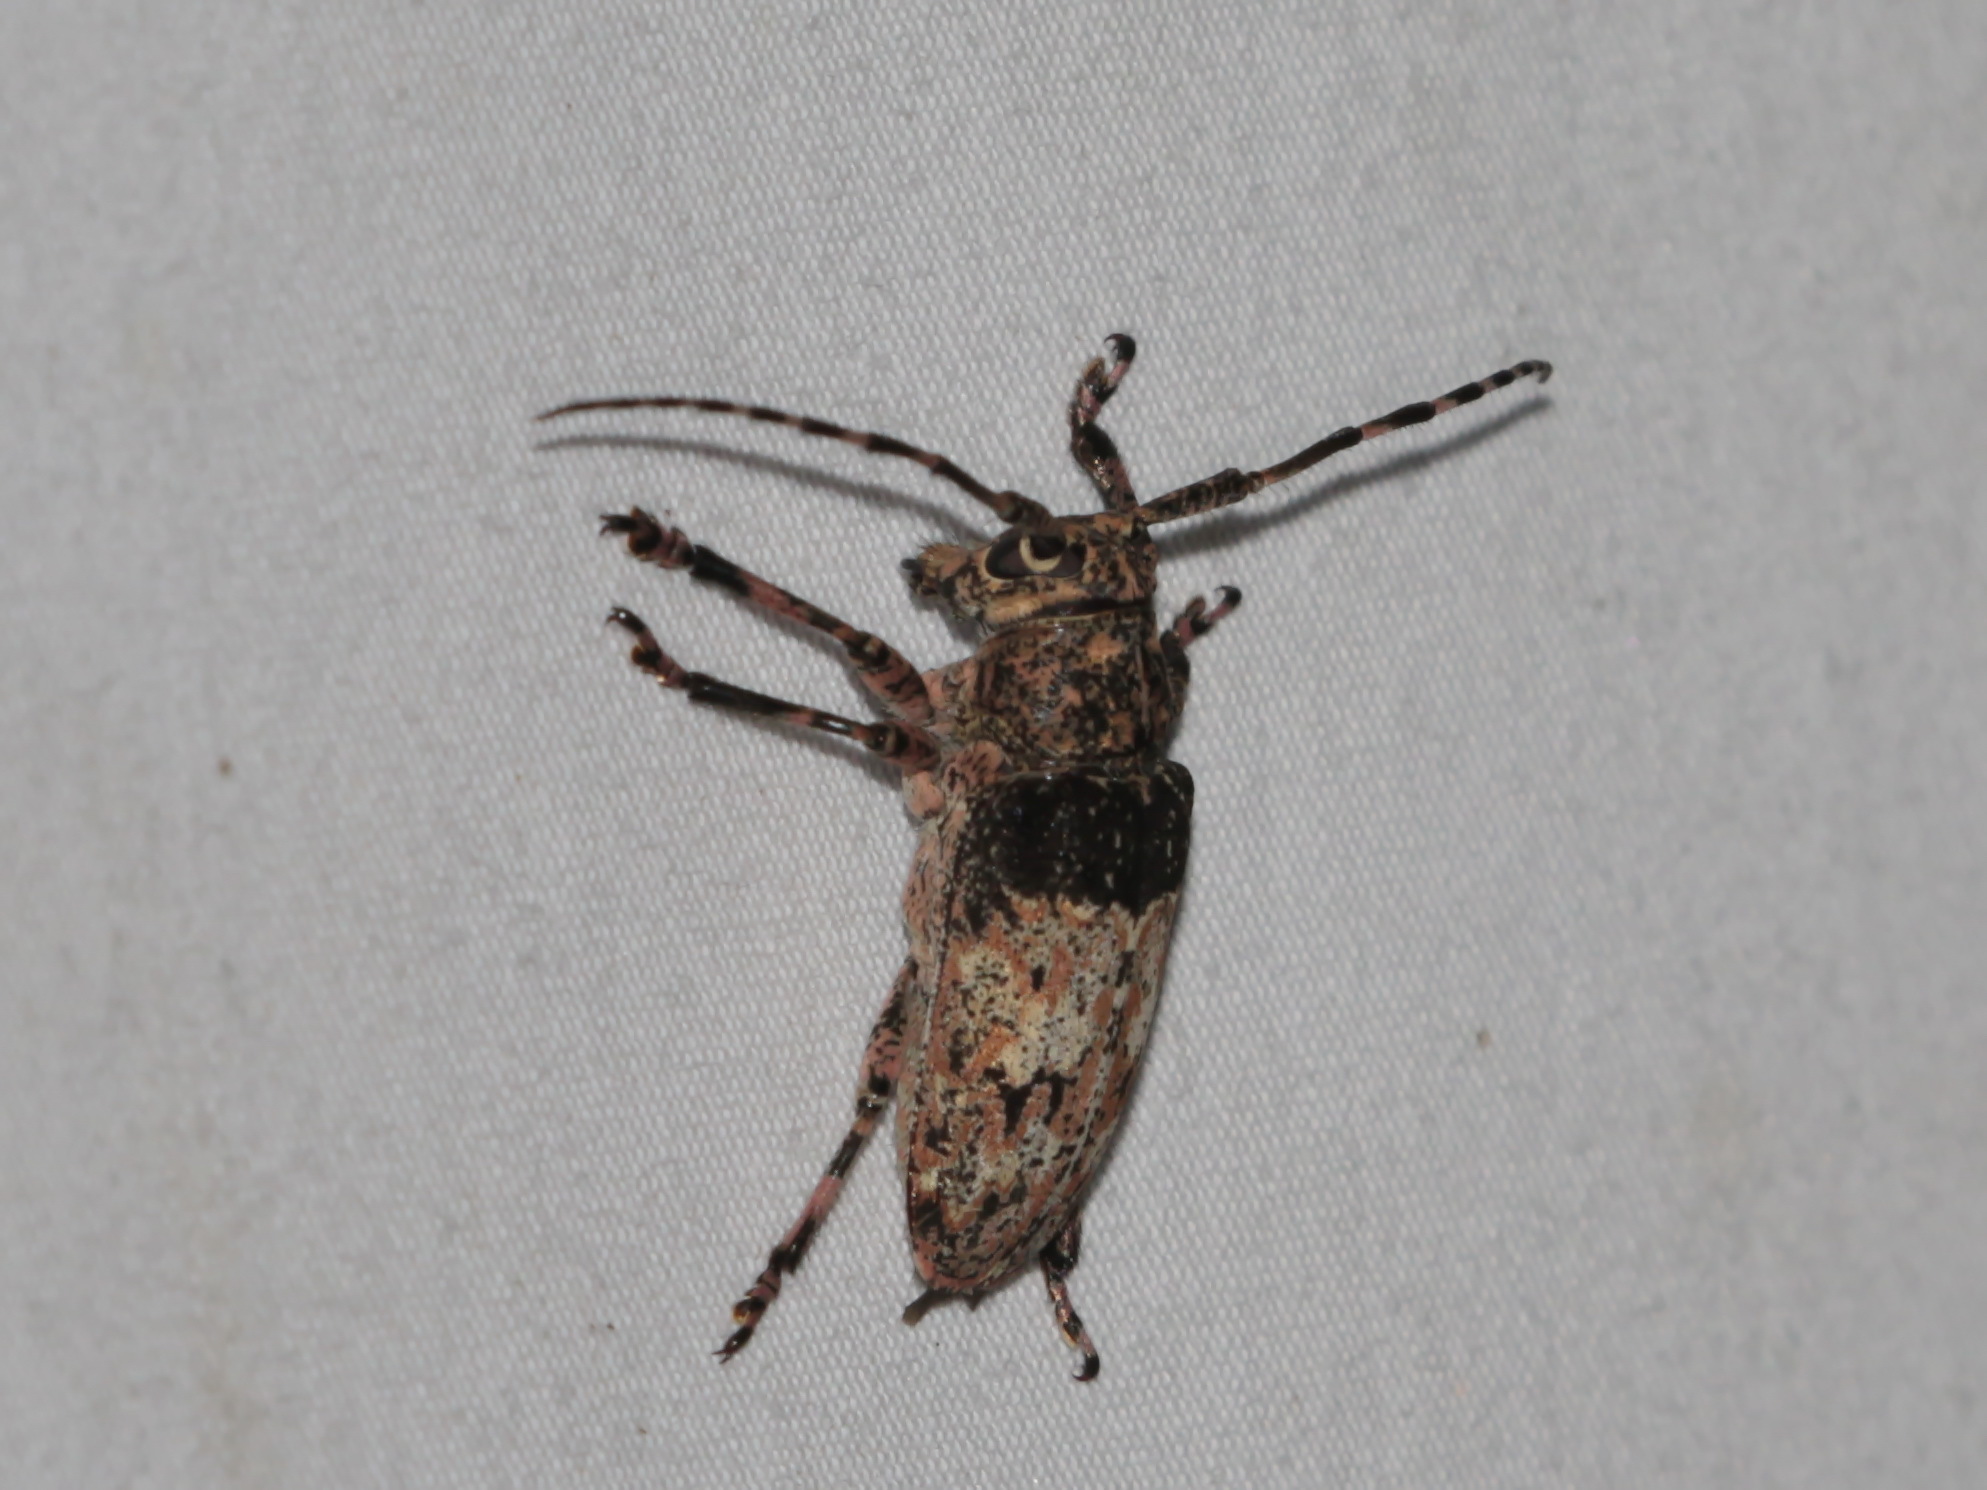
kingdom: Animalia
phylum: Arthropoda
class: Insecta
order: Coleoptera
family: Cerambycidae
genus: Mesosa
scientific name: Mesosa postmarmorata
